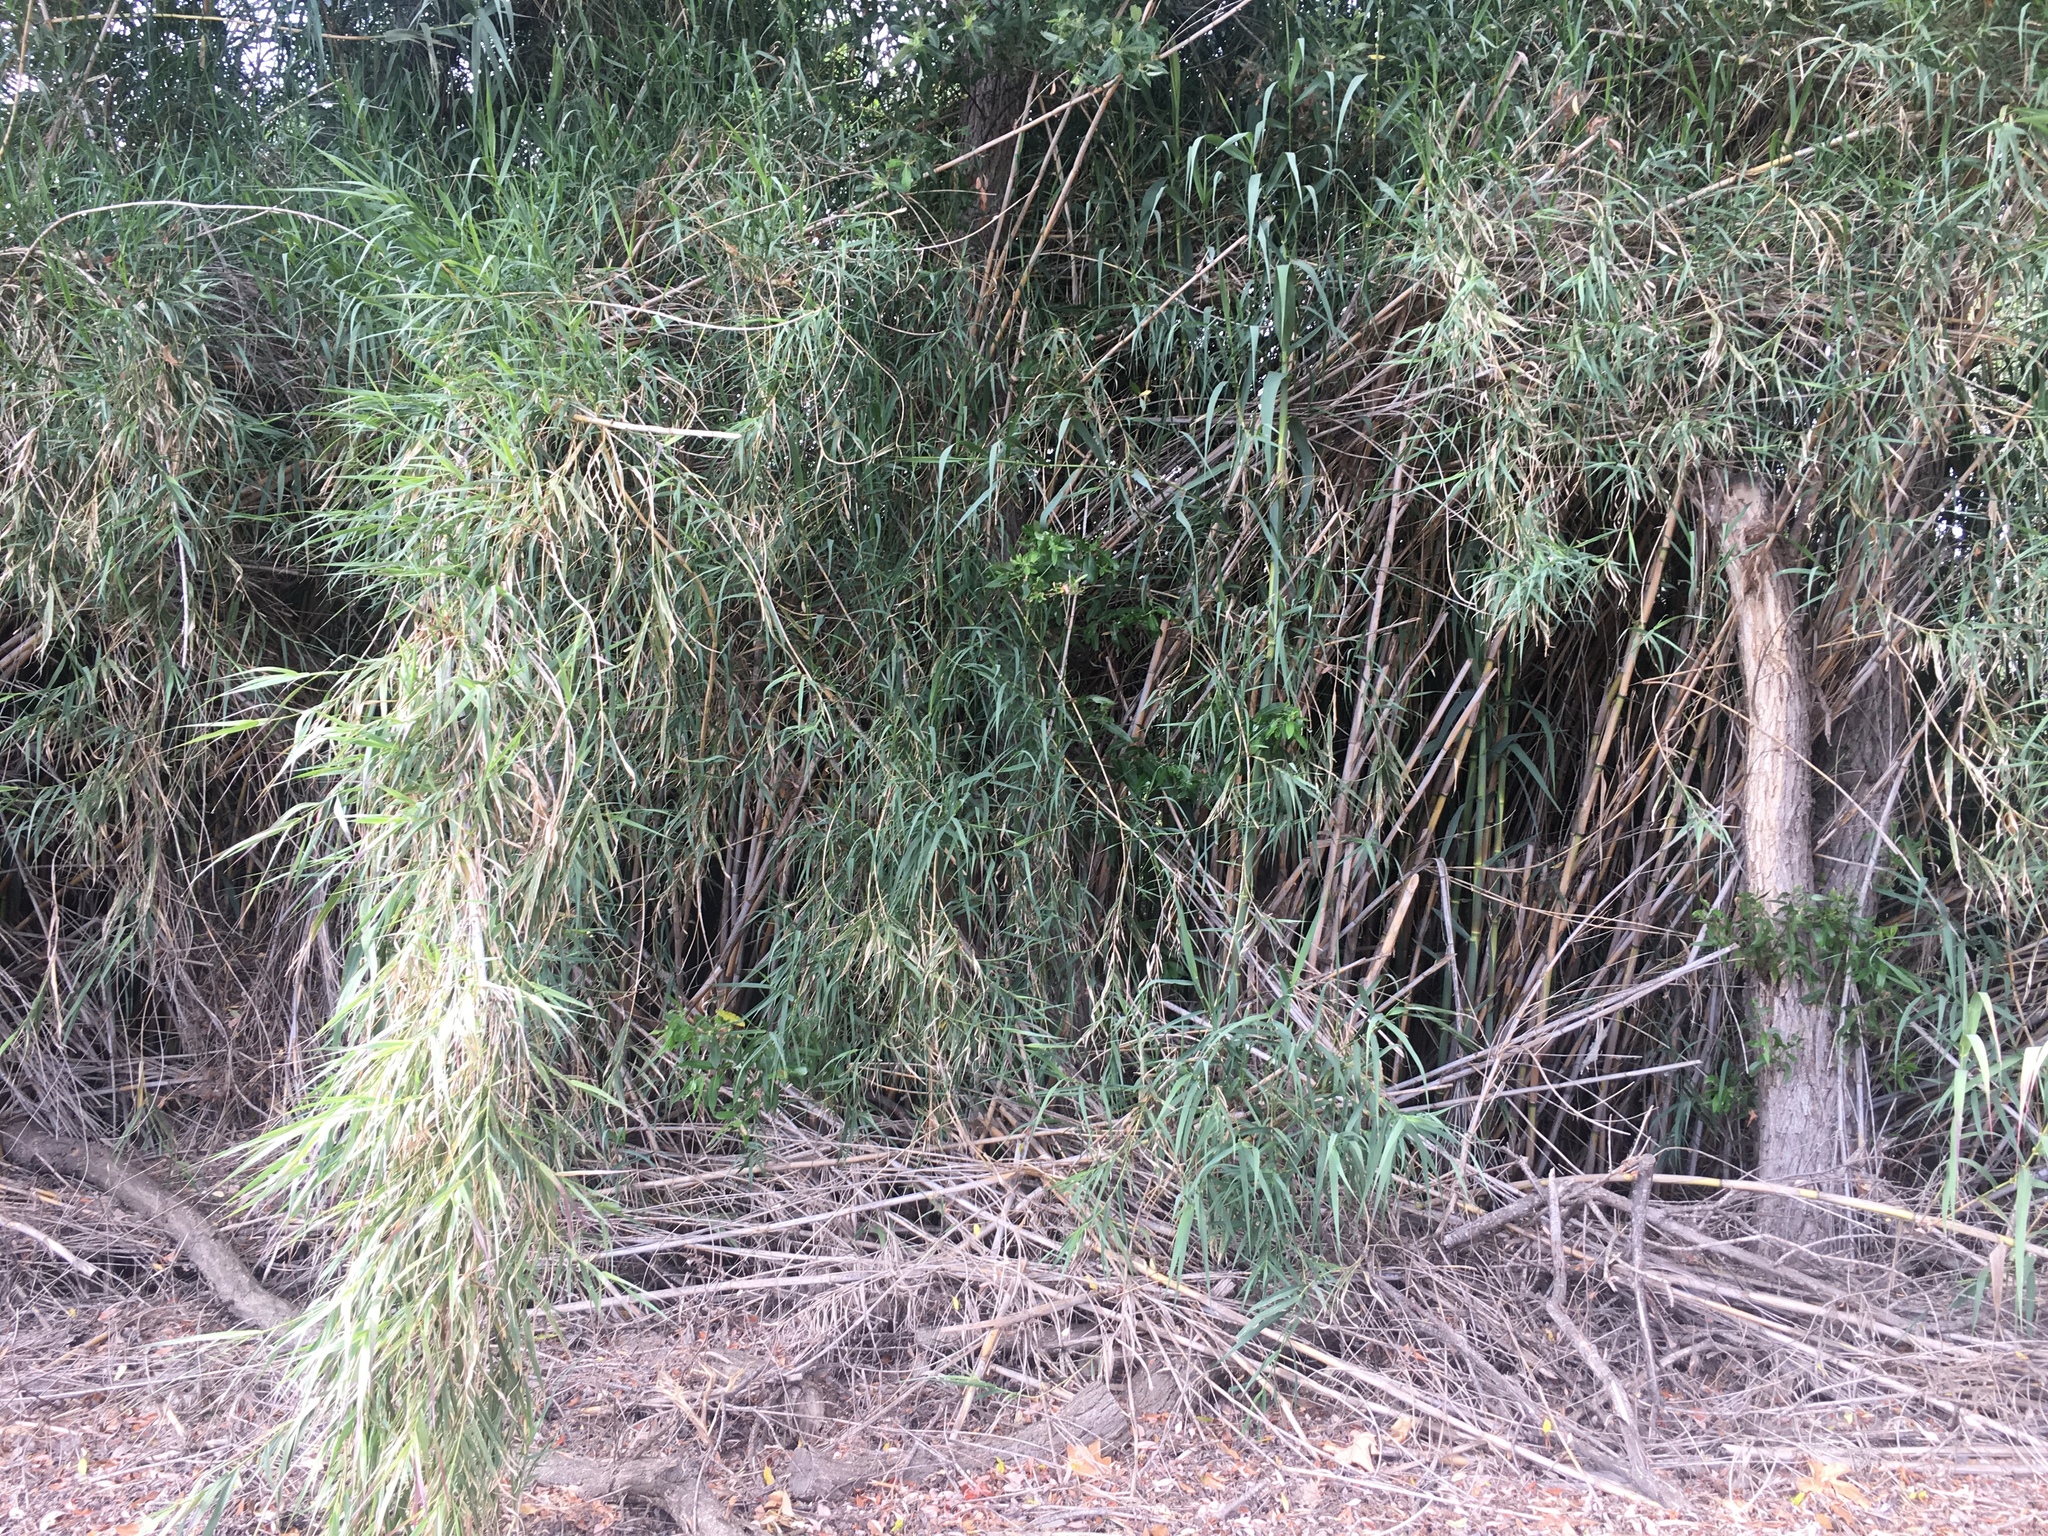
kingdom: Plantae
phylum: Tracheophyta
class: Liliopsida
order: Poales
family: Poaceae
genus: Arundo
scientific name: Arundo donax
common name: Giant reed
